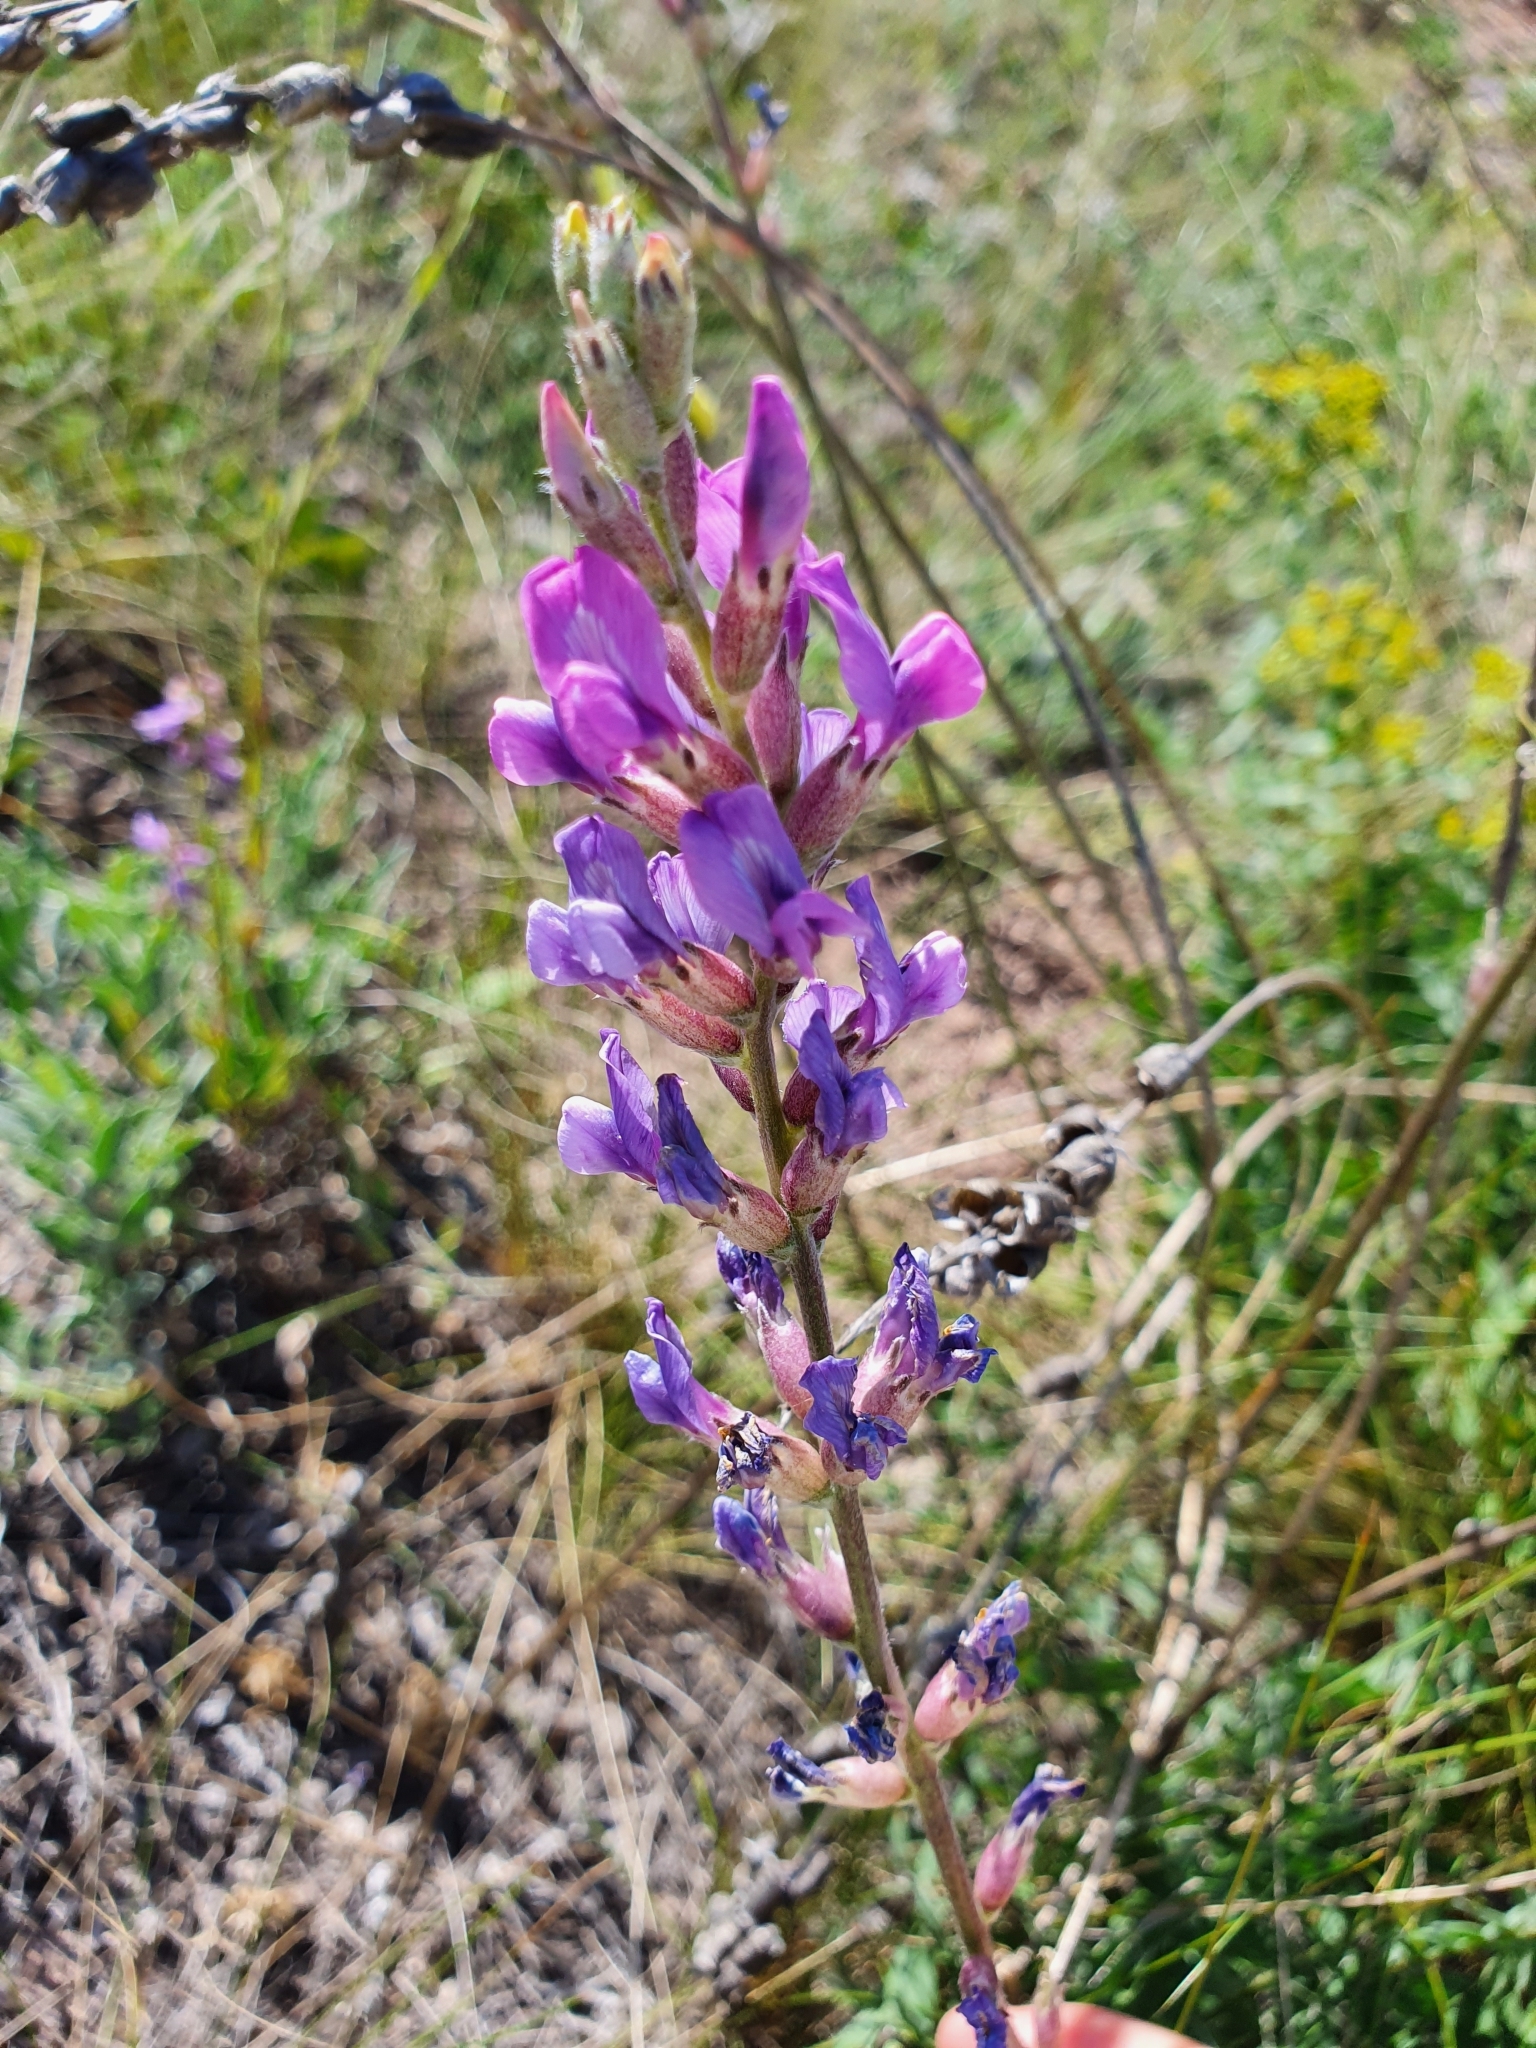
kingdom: Plantae
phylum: Tracheophyta
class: Magnoliopsida
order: Fabales
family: Fabaceae
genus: Oxytropis
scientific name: Oxytropis knjazevii
